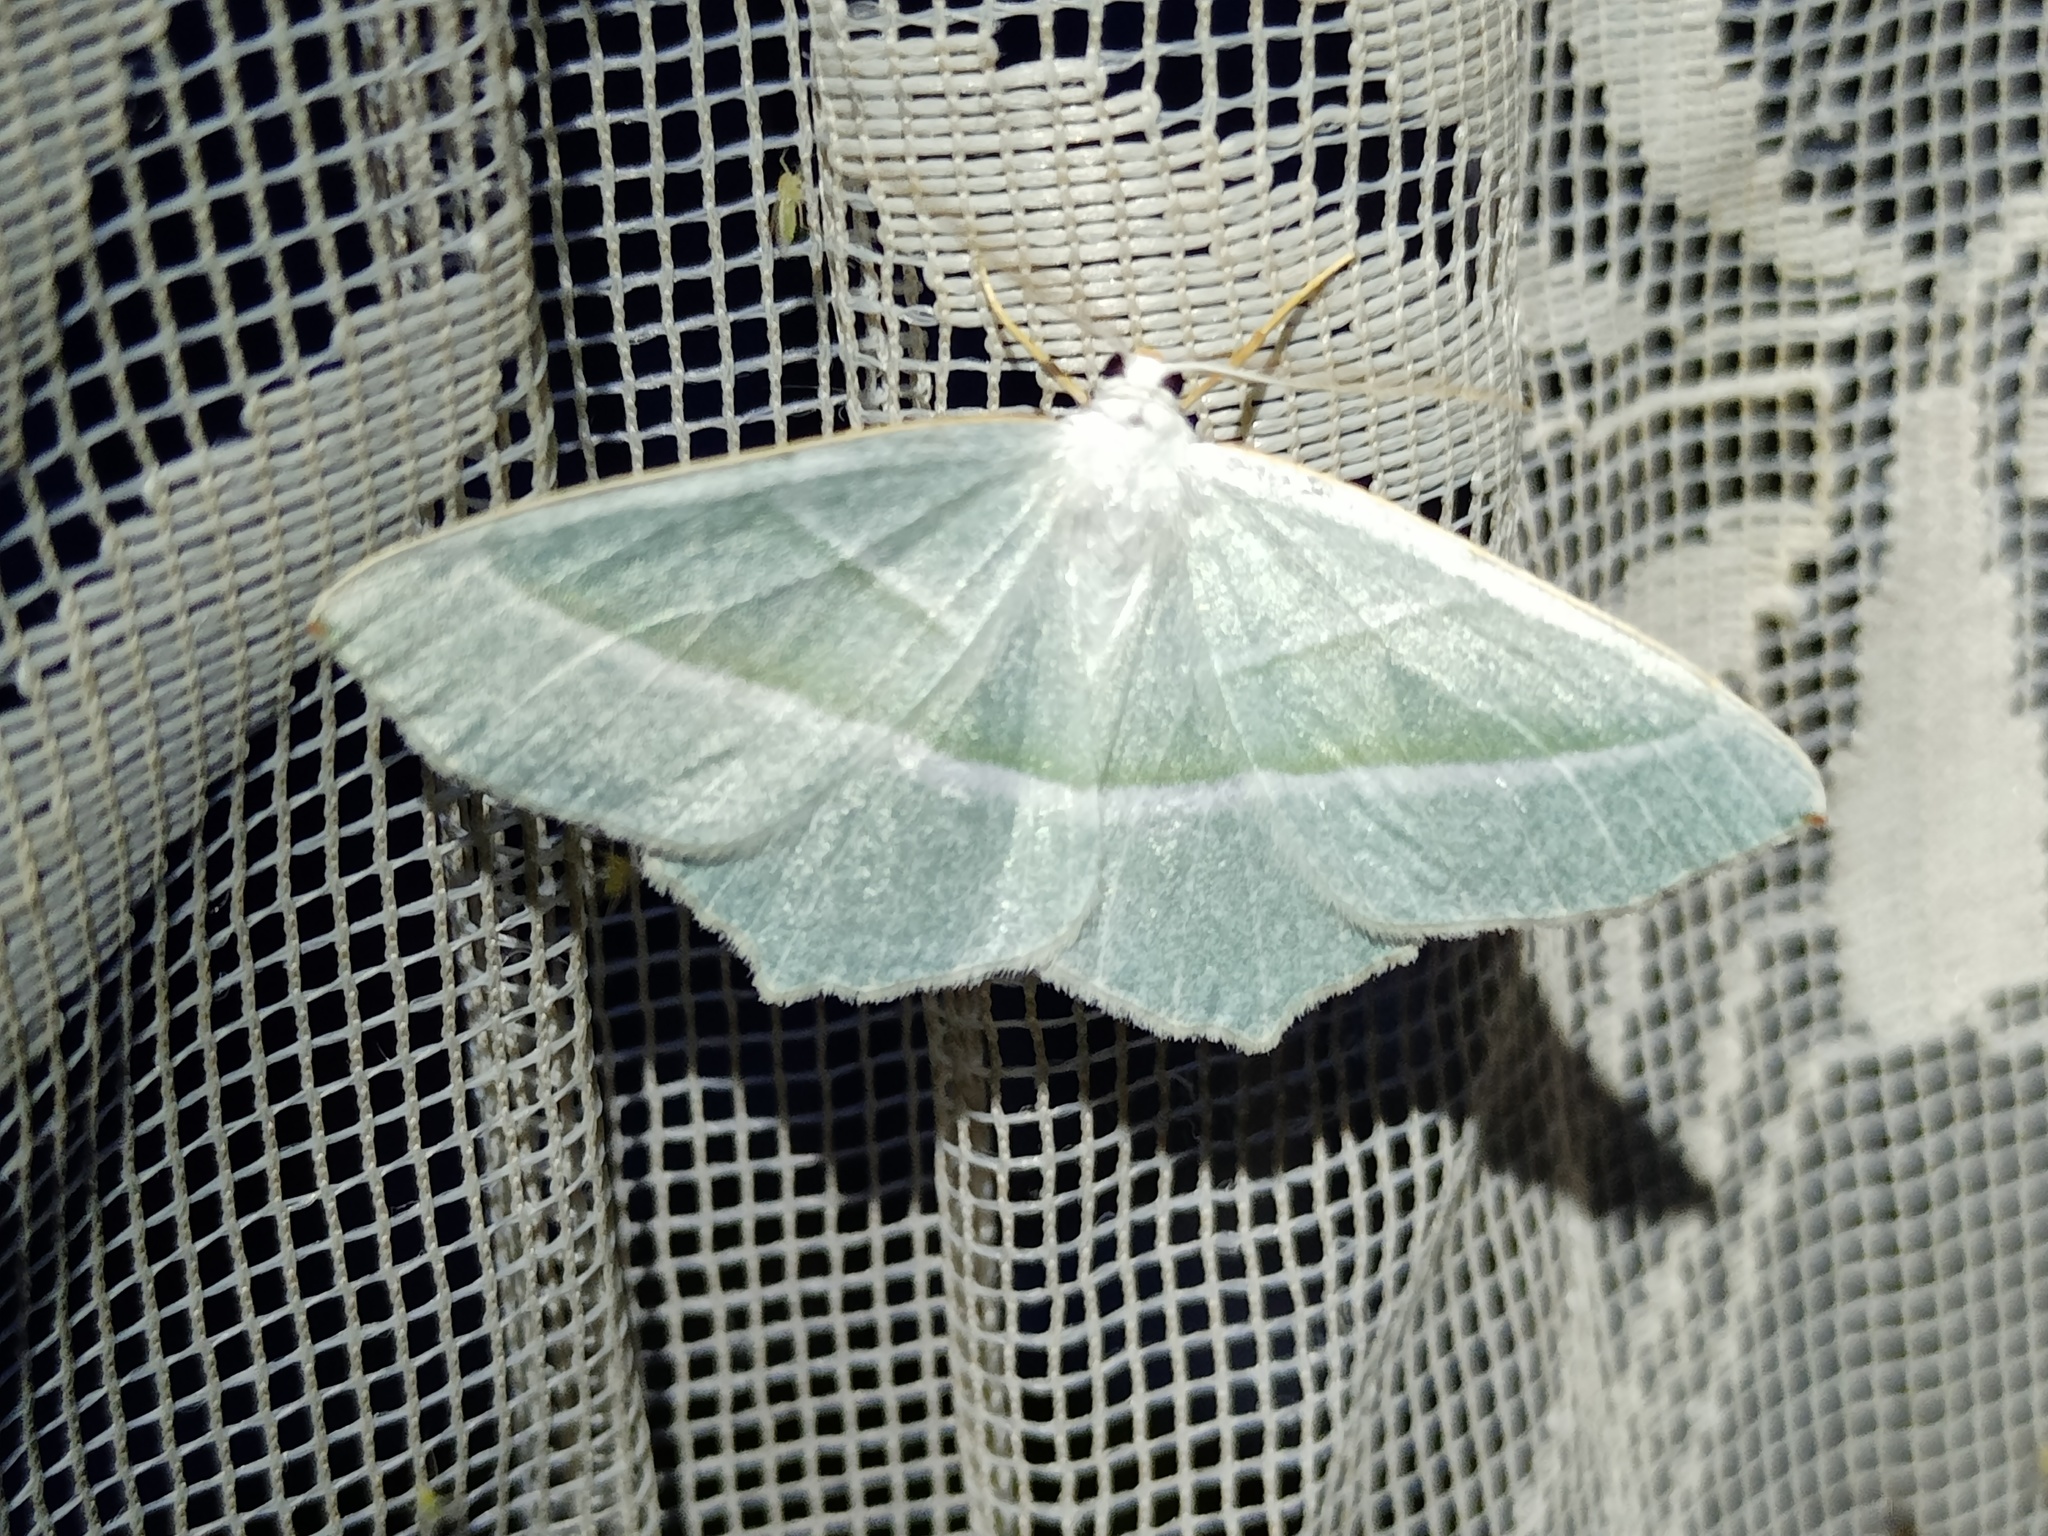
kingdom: Animalia
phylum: Arthropoda
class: Insecta
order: Lepidoptera
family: Geometridae
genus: Campaea
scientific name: Campaea margaritaria
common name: Light emerald
